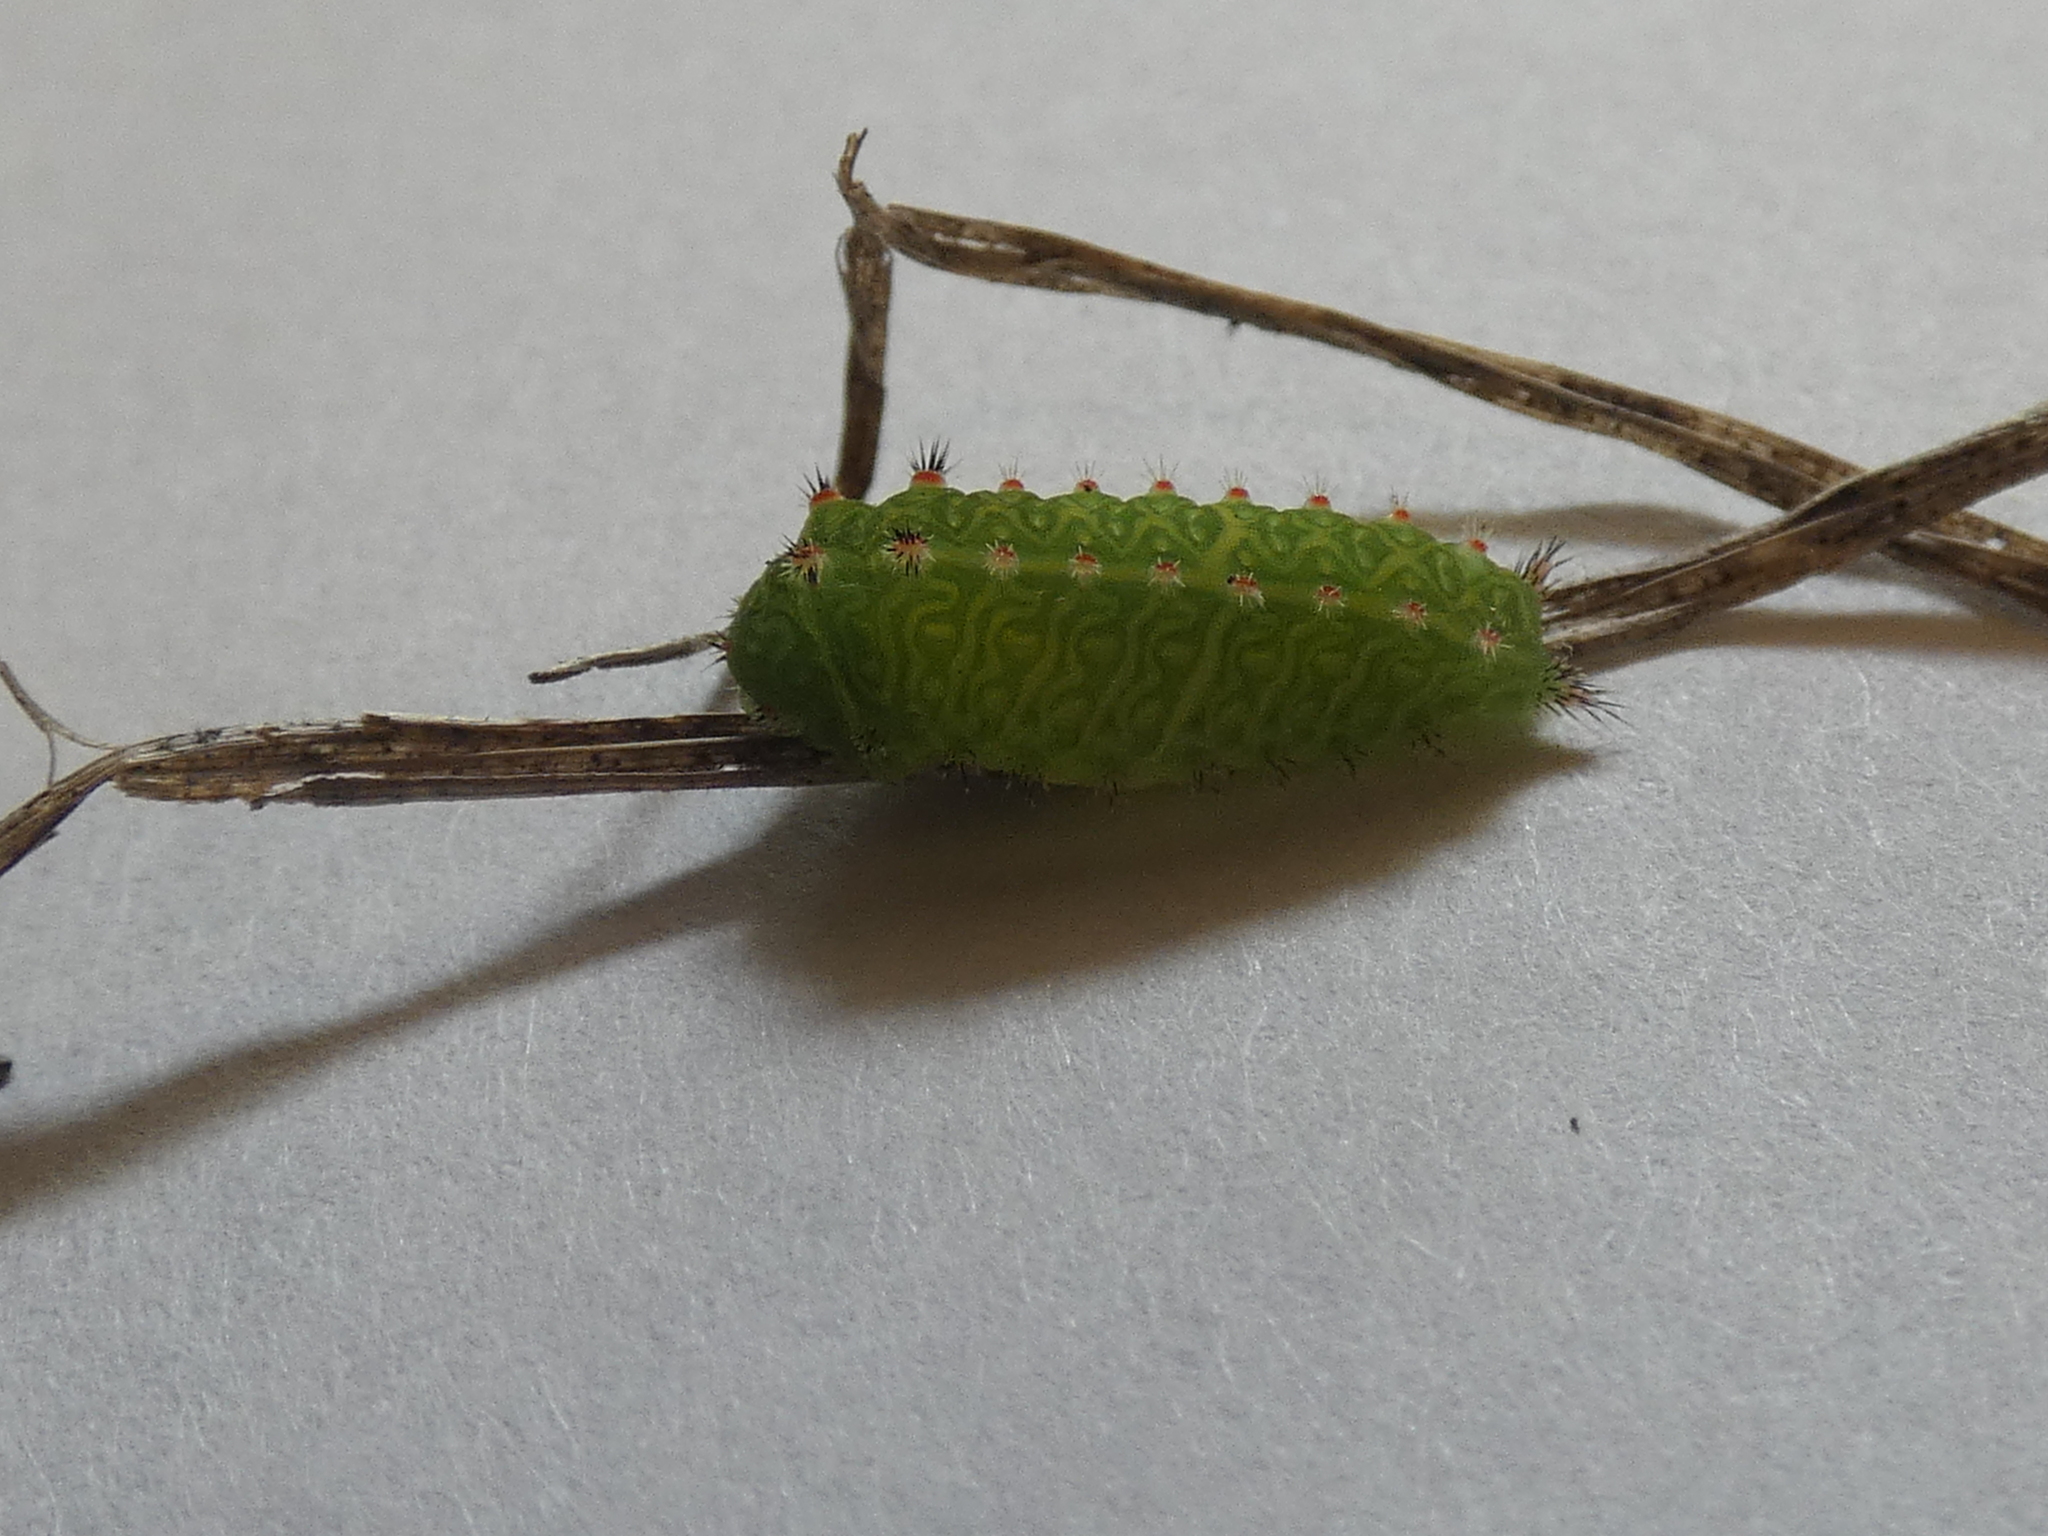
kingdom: Animalia
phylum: Arthropoda
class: Insecta
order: Lepidoptera
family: Limacodidae
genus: Natada
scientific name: Natada nasoni
